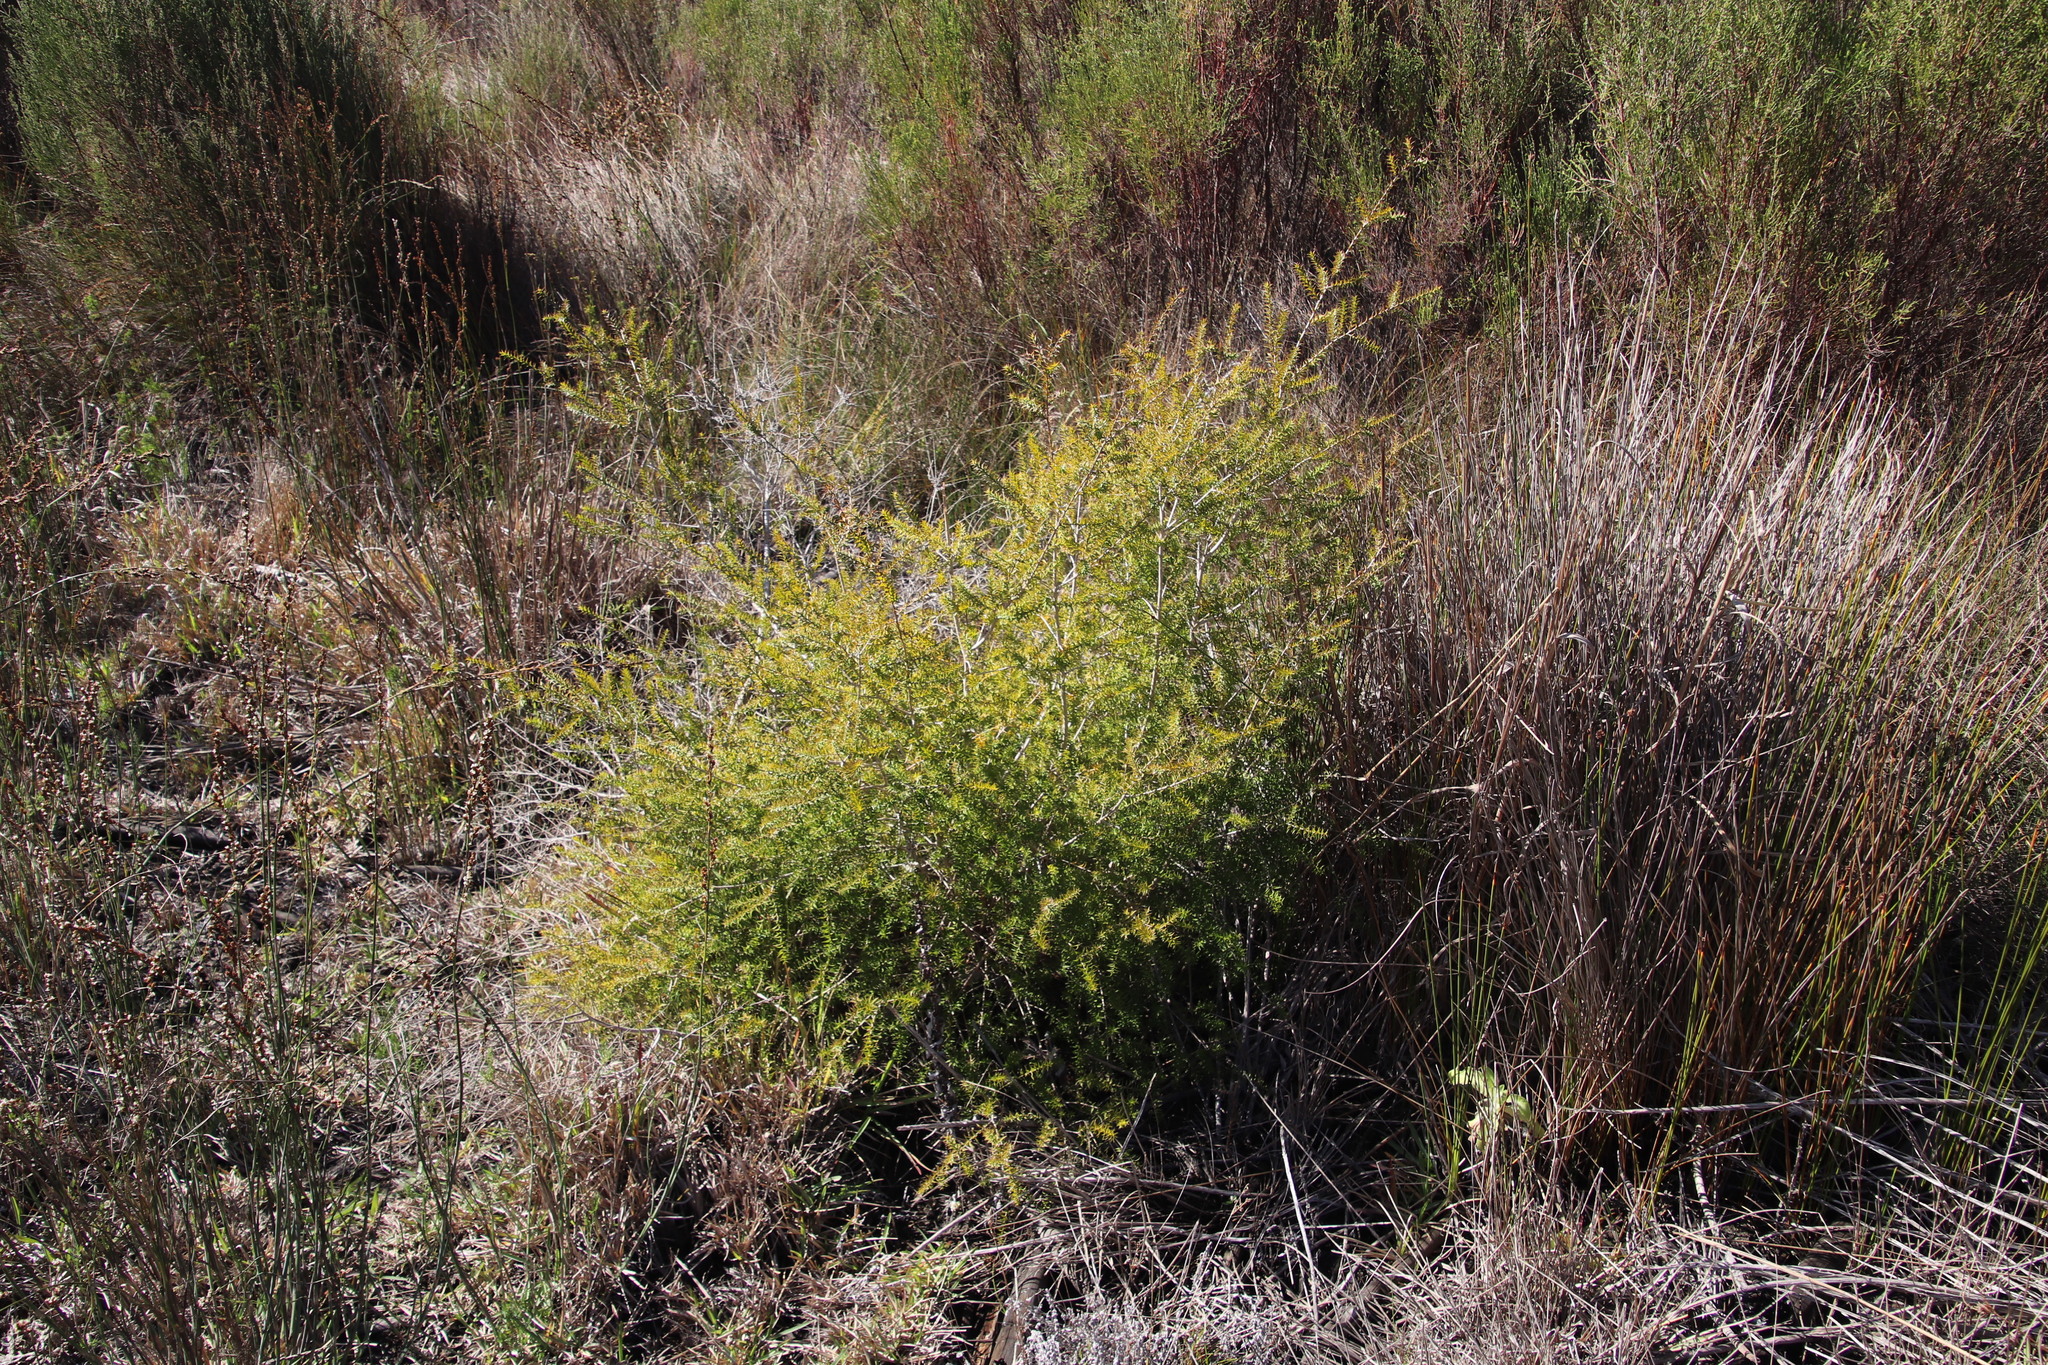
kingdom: Plantae
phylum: Tracheophyta
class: Magnoliopsida
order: Myrtales
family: Myrtaceae
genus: Melaleuca
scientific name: Melaleuca styphelioides
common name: Prickly paperbark
